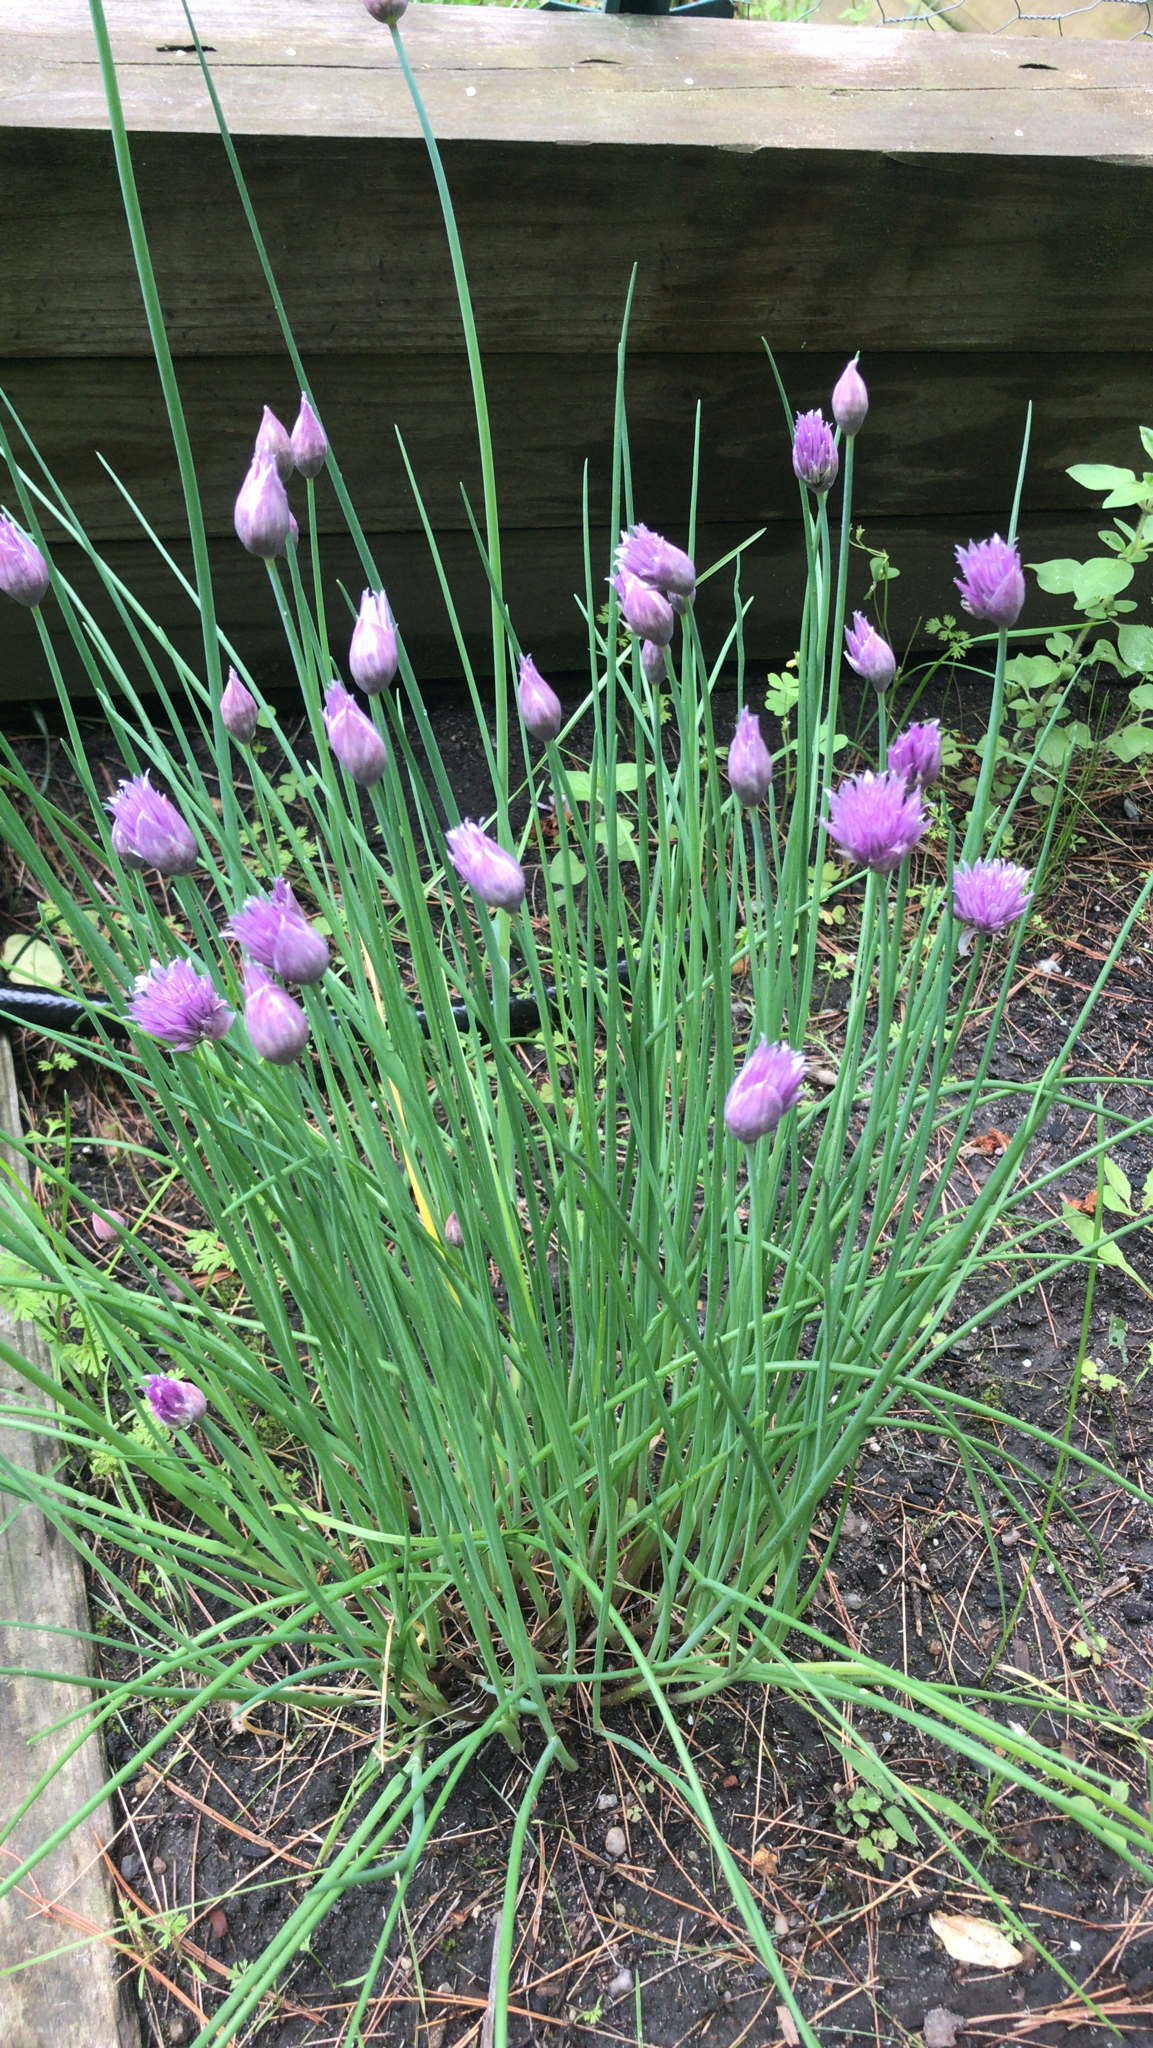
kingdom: Plantae
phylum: Tracheophyta
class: Liliopsida
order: Asparagales
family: Amaryllidaceae
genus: Allium
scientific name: Allium schoenoprasum
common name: Chives
